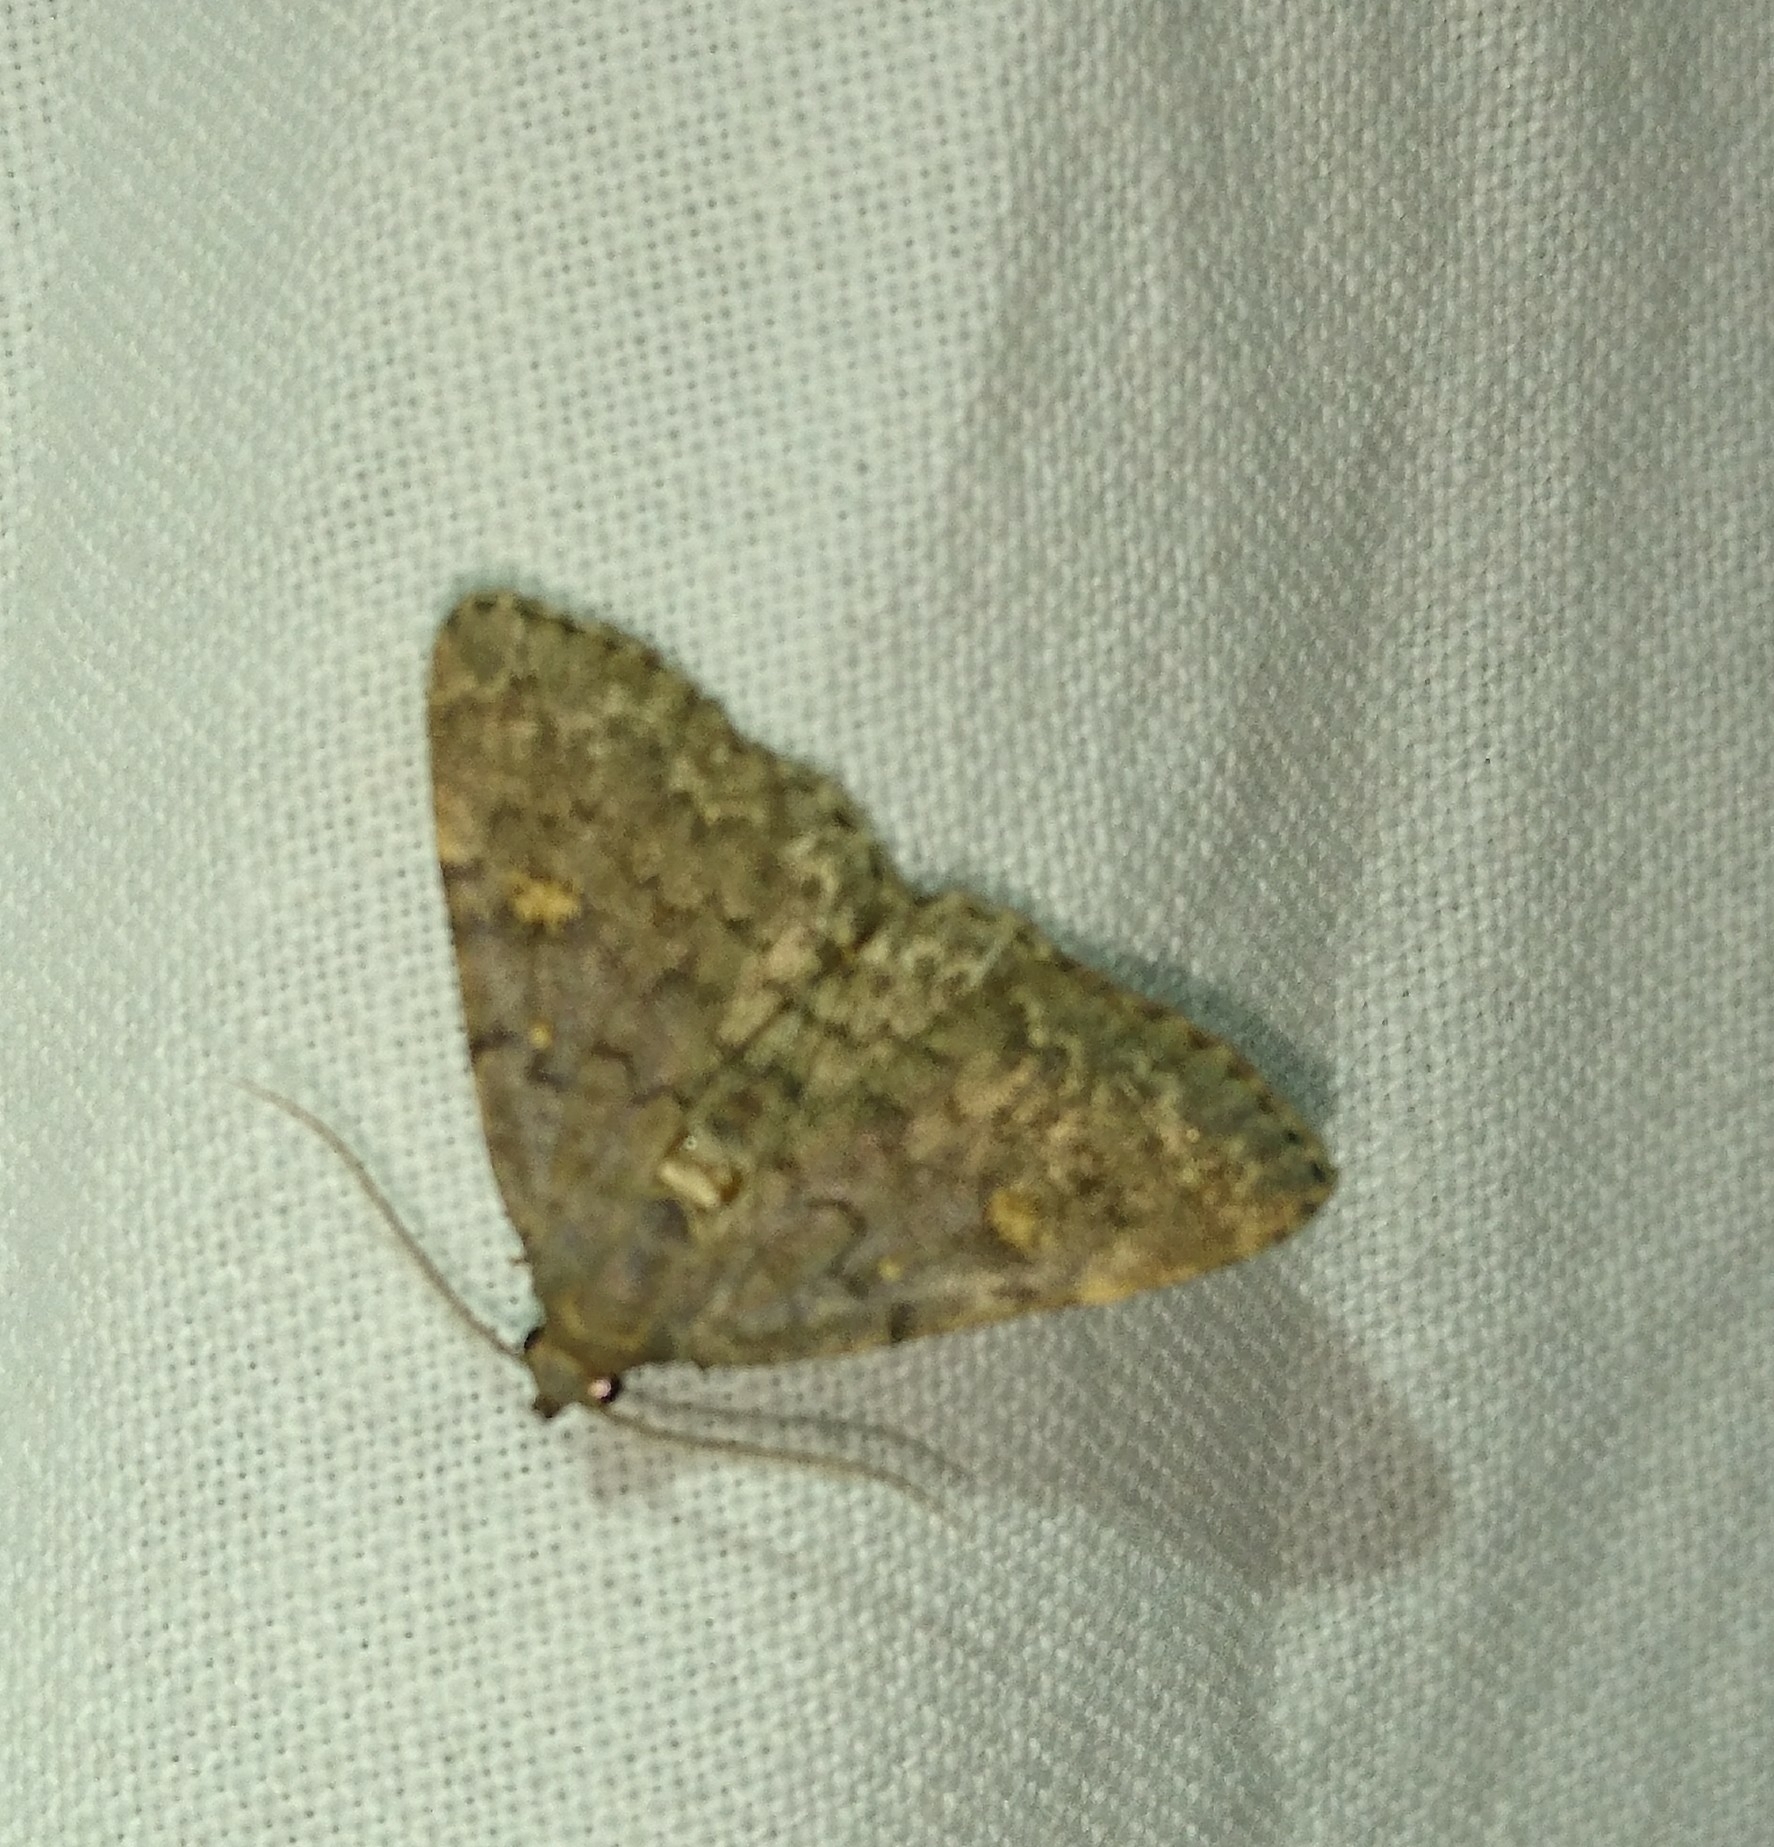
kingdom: Animalia
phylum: Arthropoda
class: Insecta
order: Lepidoptera
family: Erebidae
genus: Idia
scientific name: Idia aemula
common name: Common idia moth
